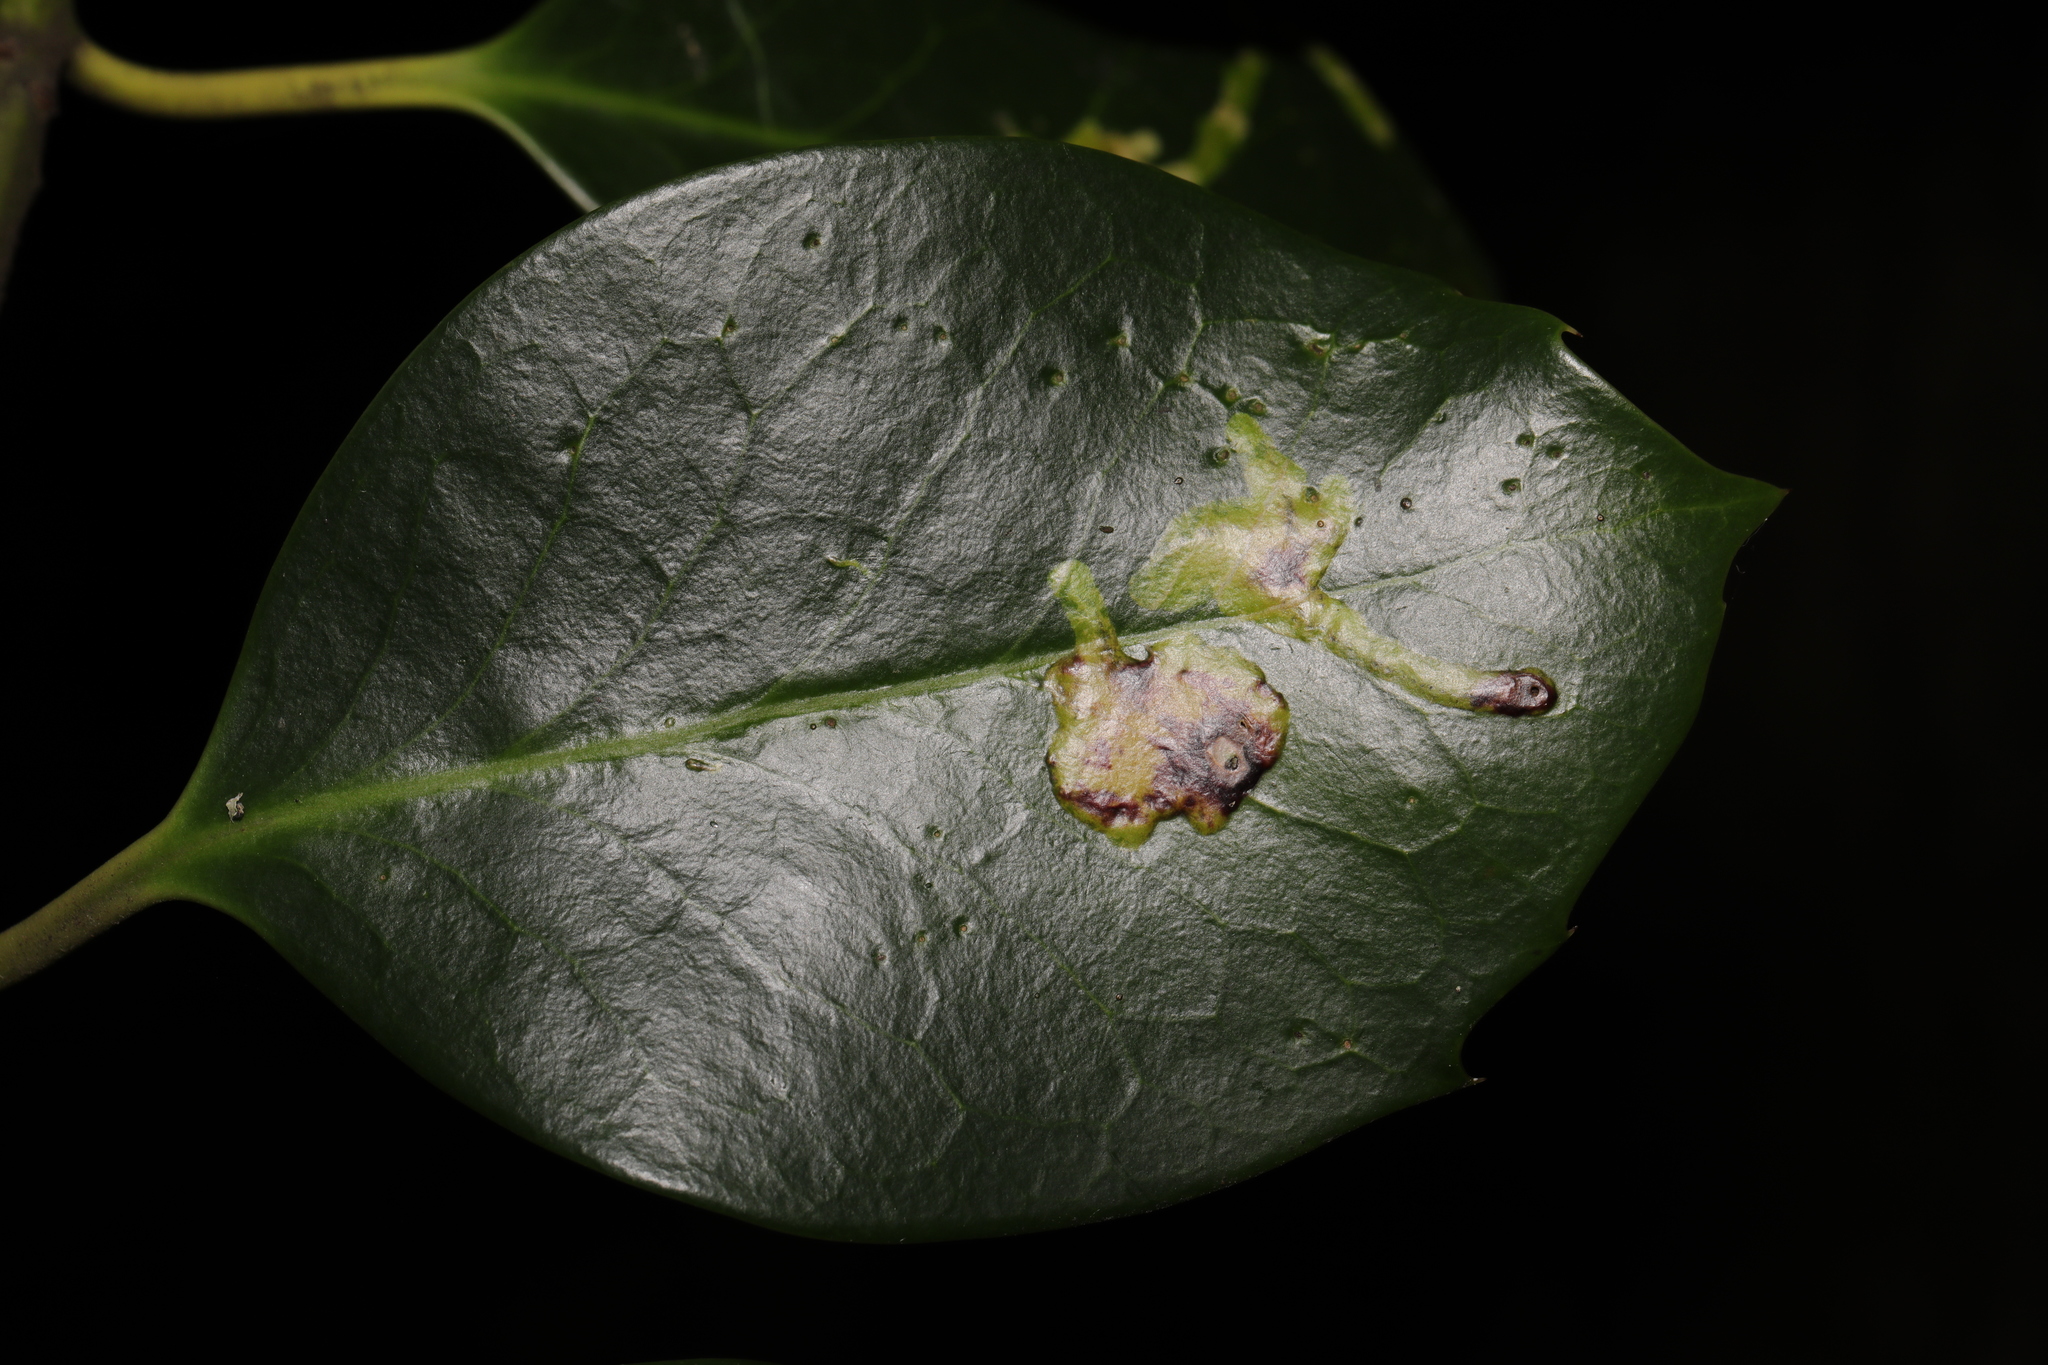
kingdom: Animalia
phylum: Arthropoda
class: Insecta
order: Diptera
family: Agromyzidae
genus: Phytomyza
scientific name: Phytomyza ilicis
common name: Holly leafminer
